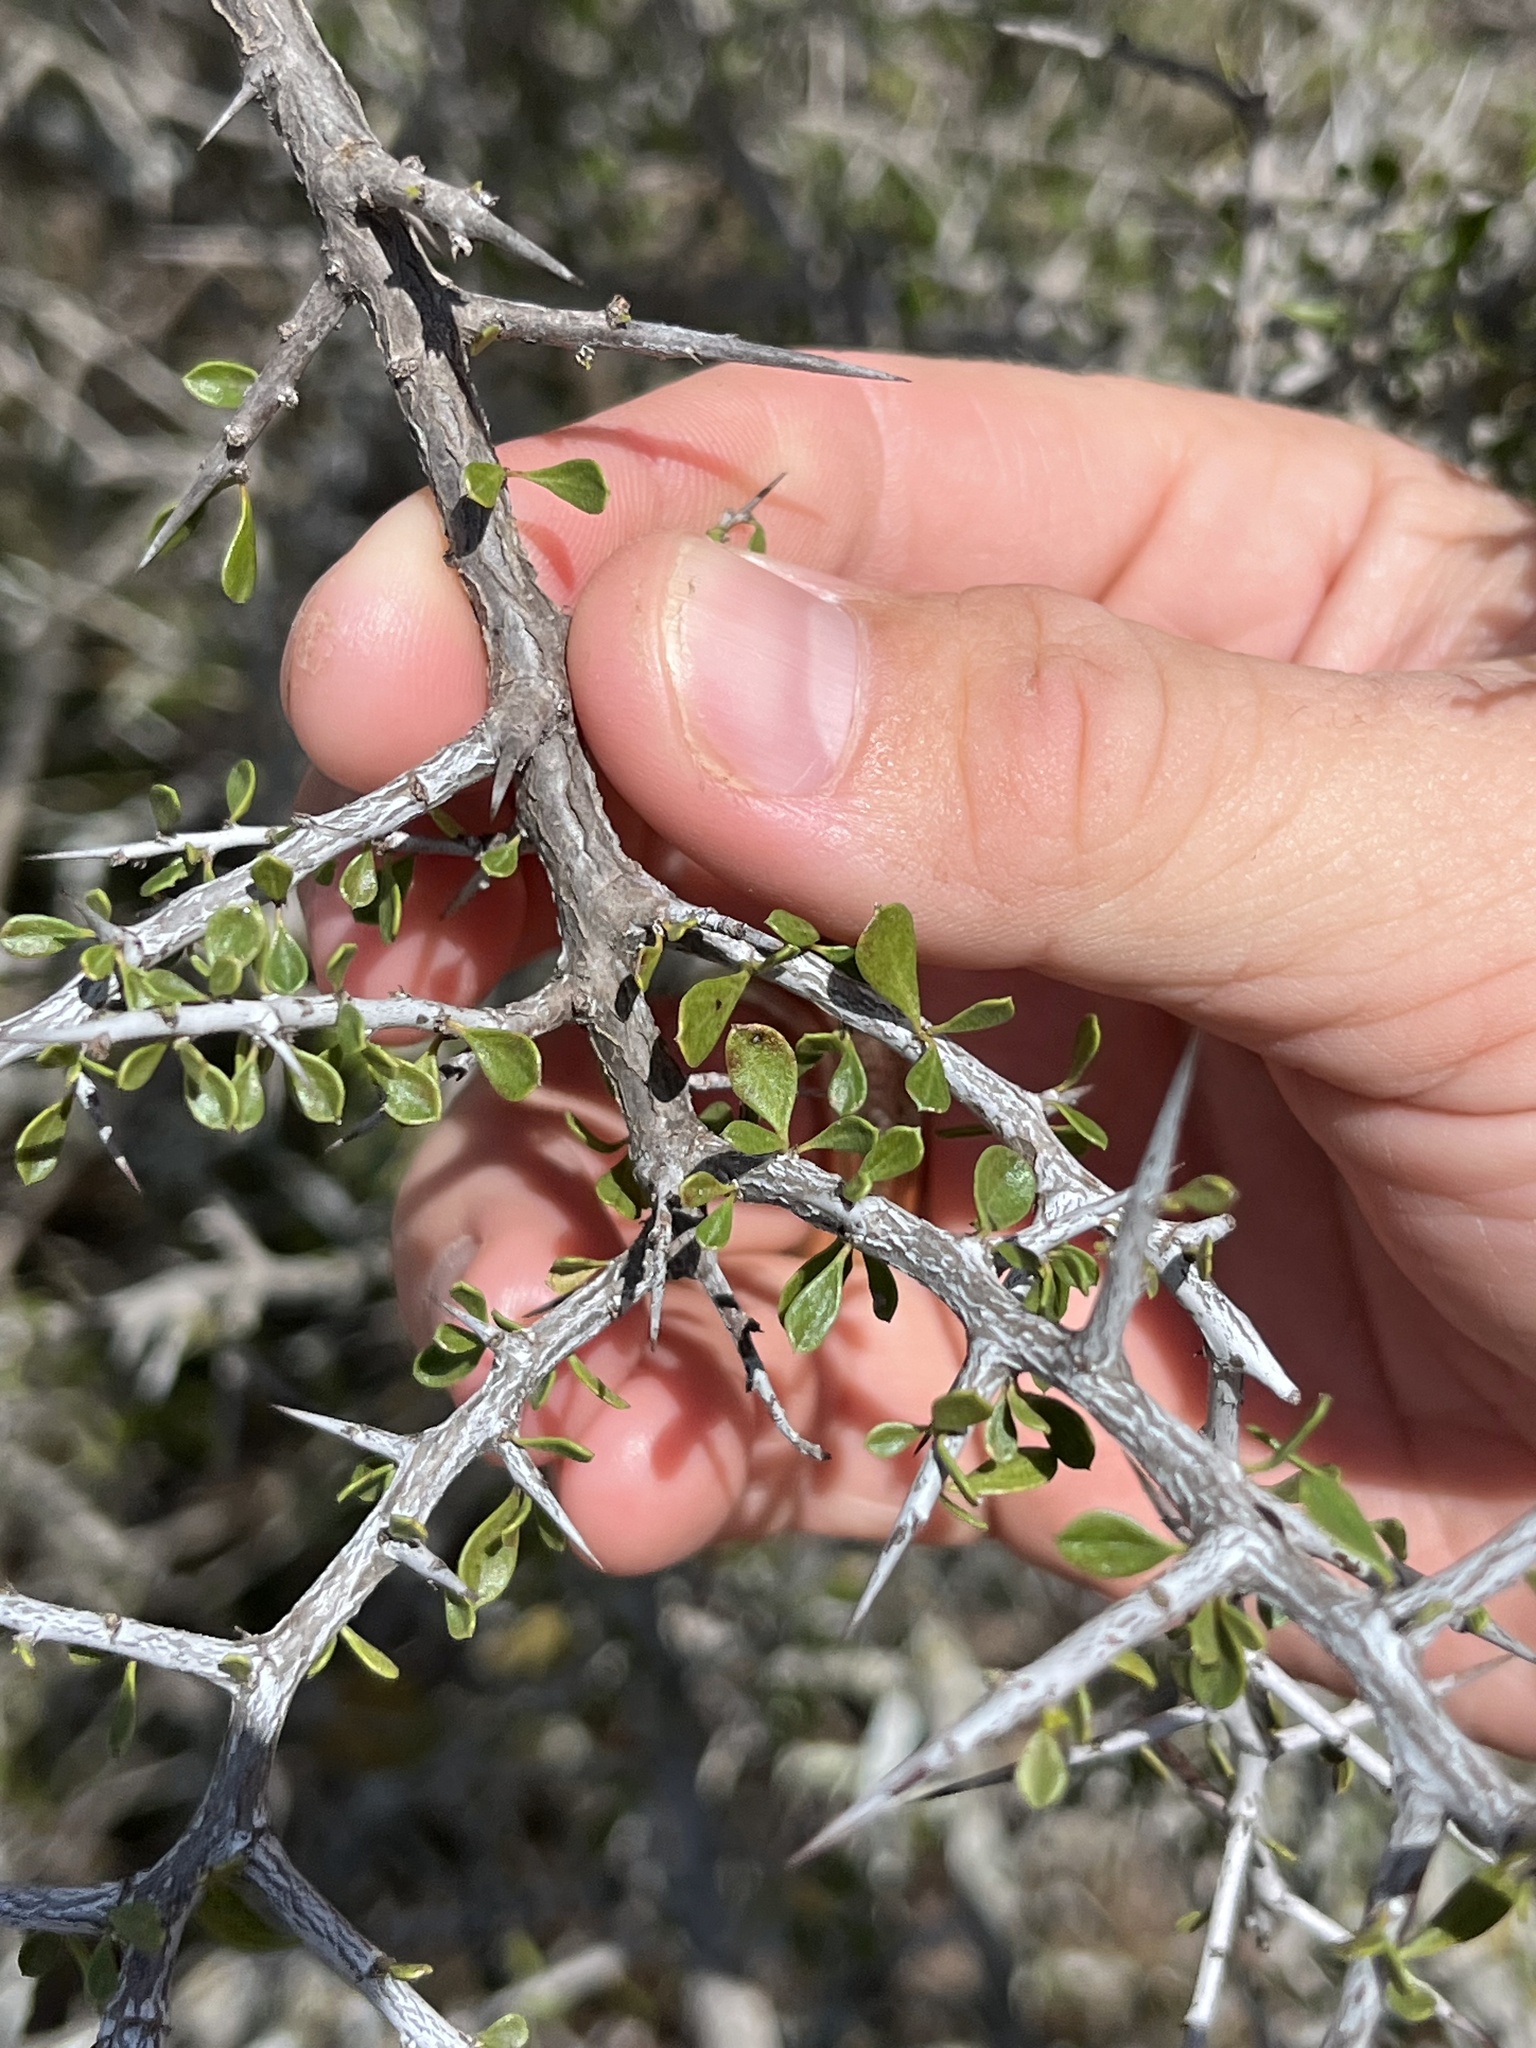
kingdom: Plantae
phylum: Tracheophyta
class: Magnoliopsida
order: Rosales
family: Rhamnaceae
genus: Condalia
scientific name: Condalia viridis
